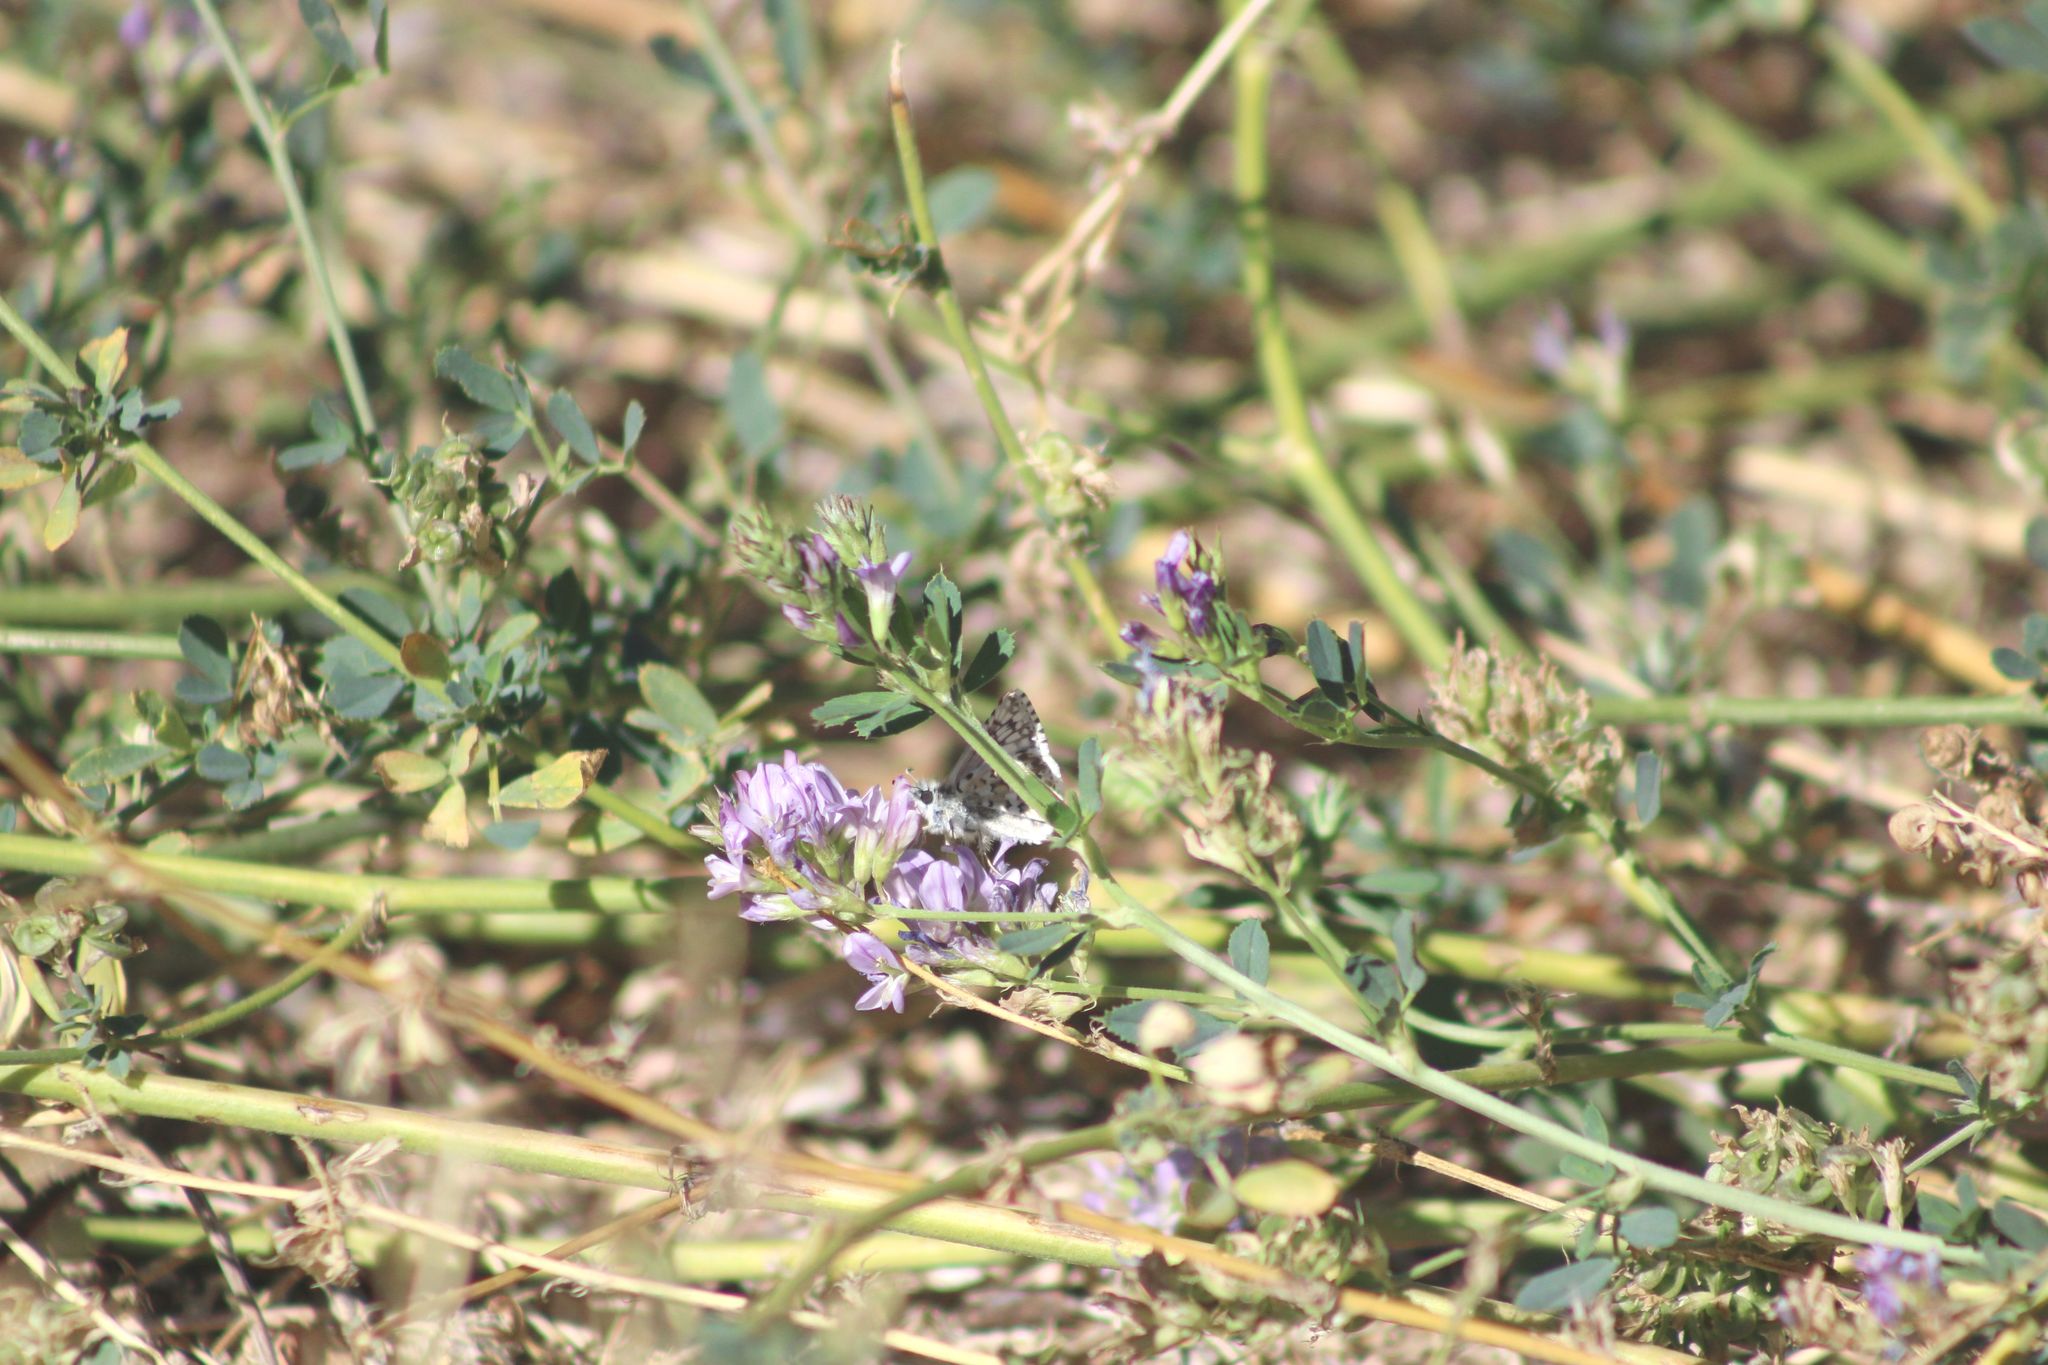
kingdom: Animalia
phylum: Arthropoda
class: Insecta
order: Lepidoptera
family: Hesperiidae
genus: Burnsius
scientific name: Burnsius communis
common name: Common checkered-skipper
